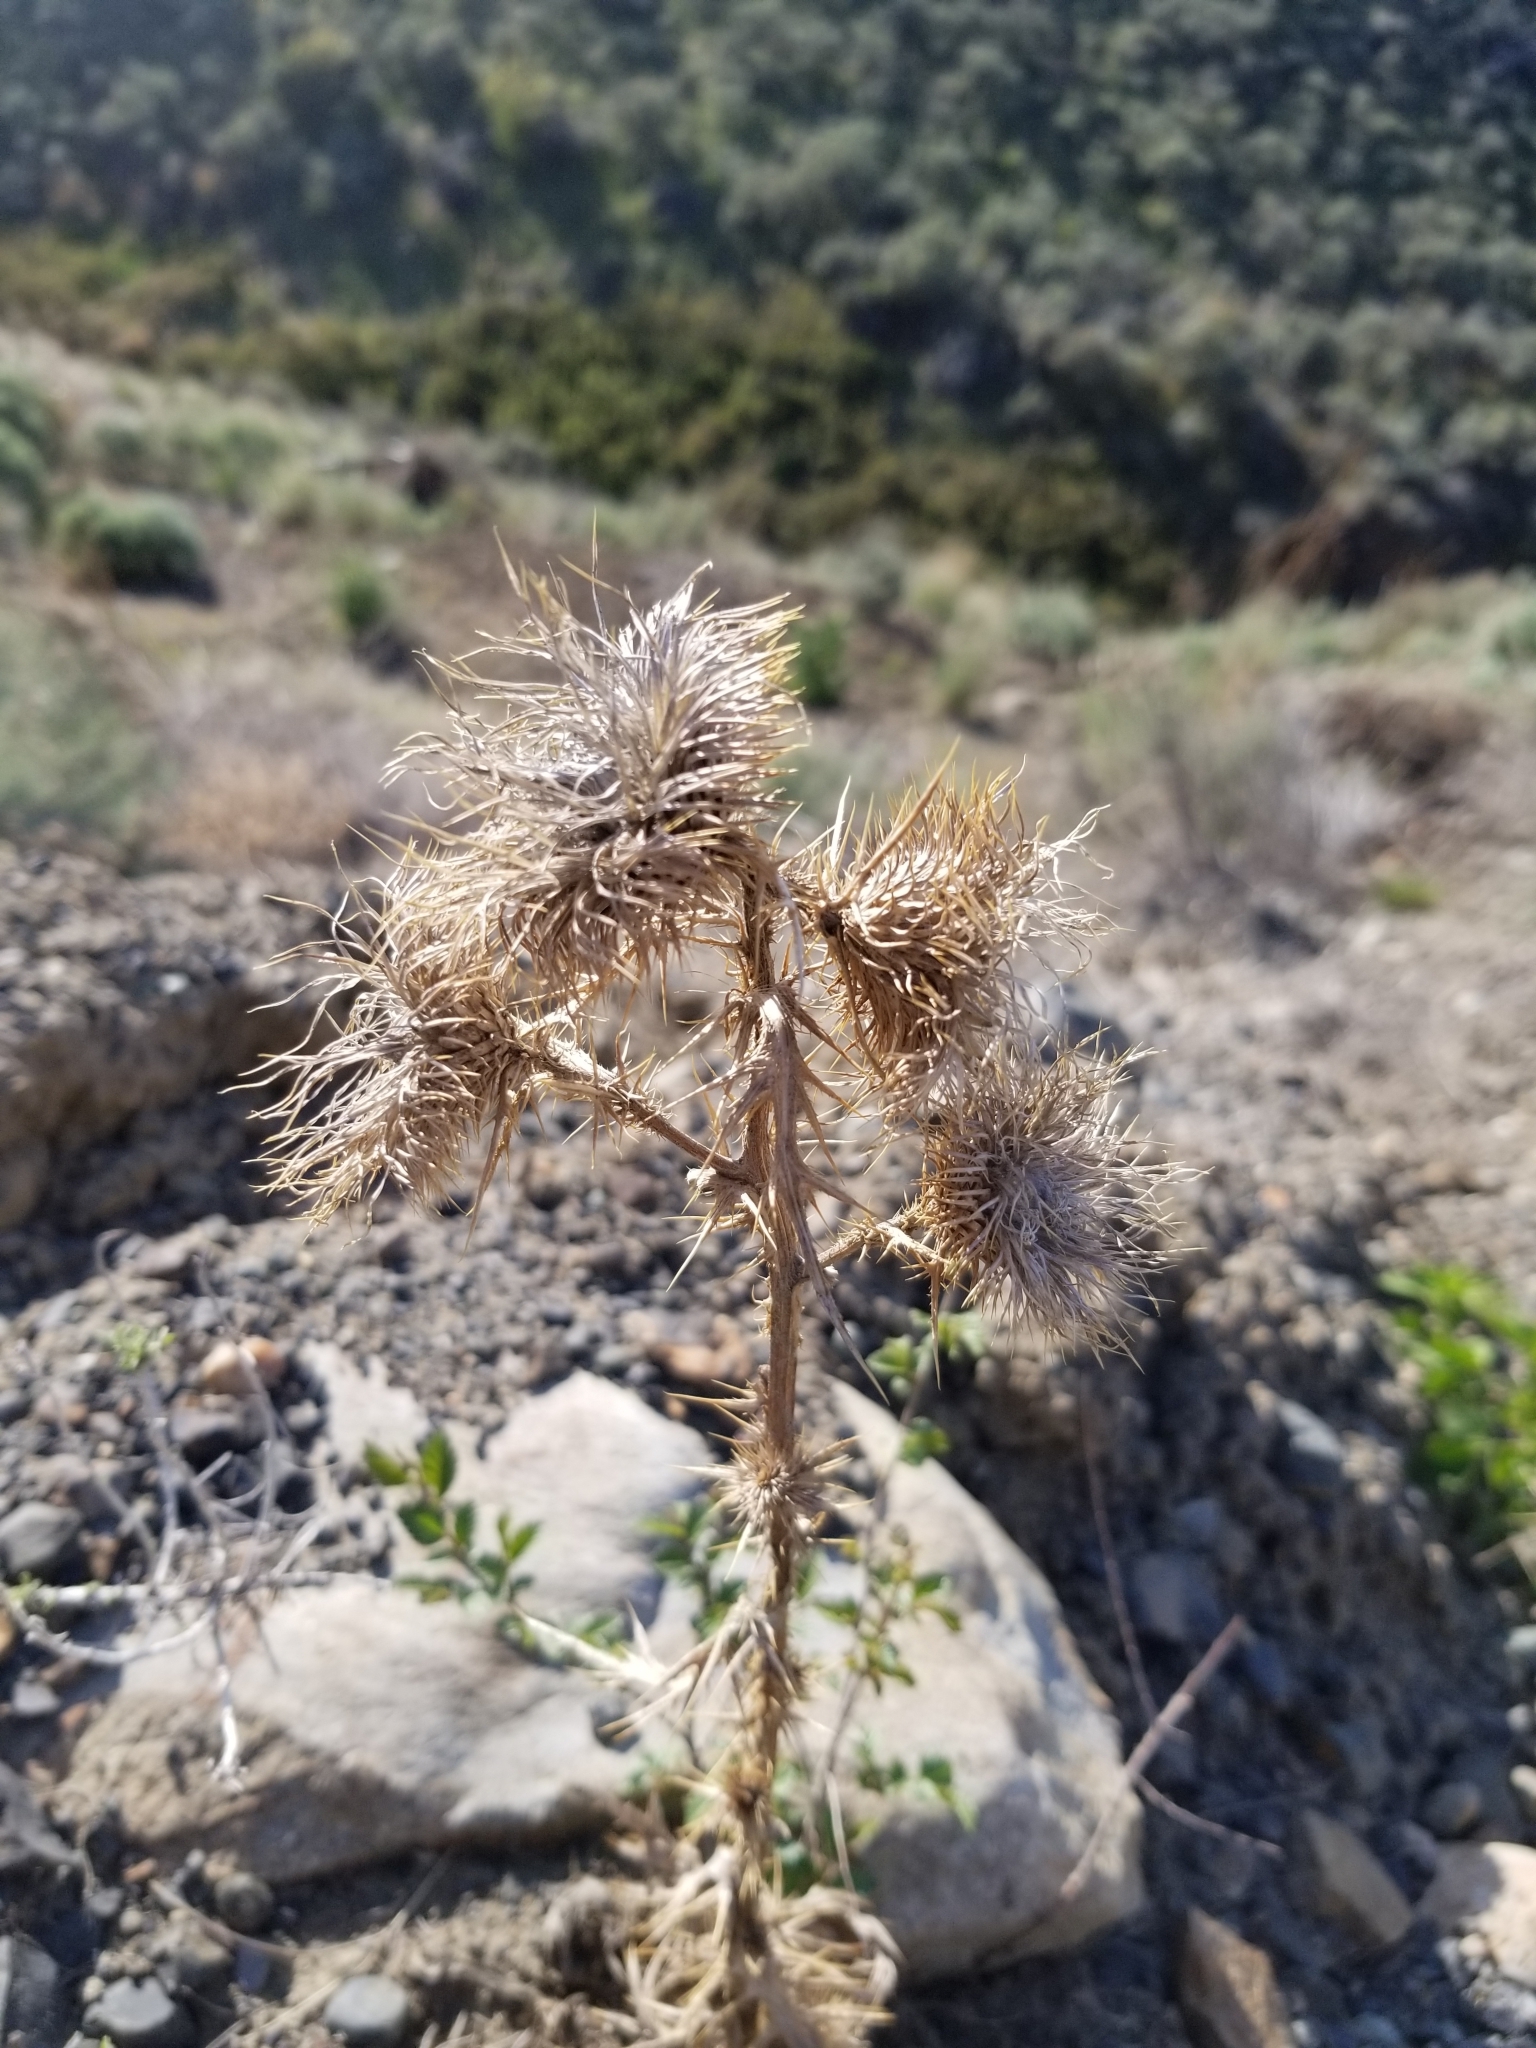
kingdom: Plantae
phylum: Tracheophyta
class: Magnoliopsida
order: Asterales
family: Asteraceae
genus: Cirsium
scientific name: Cirsium vulgare
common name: Bull thistle
